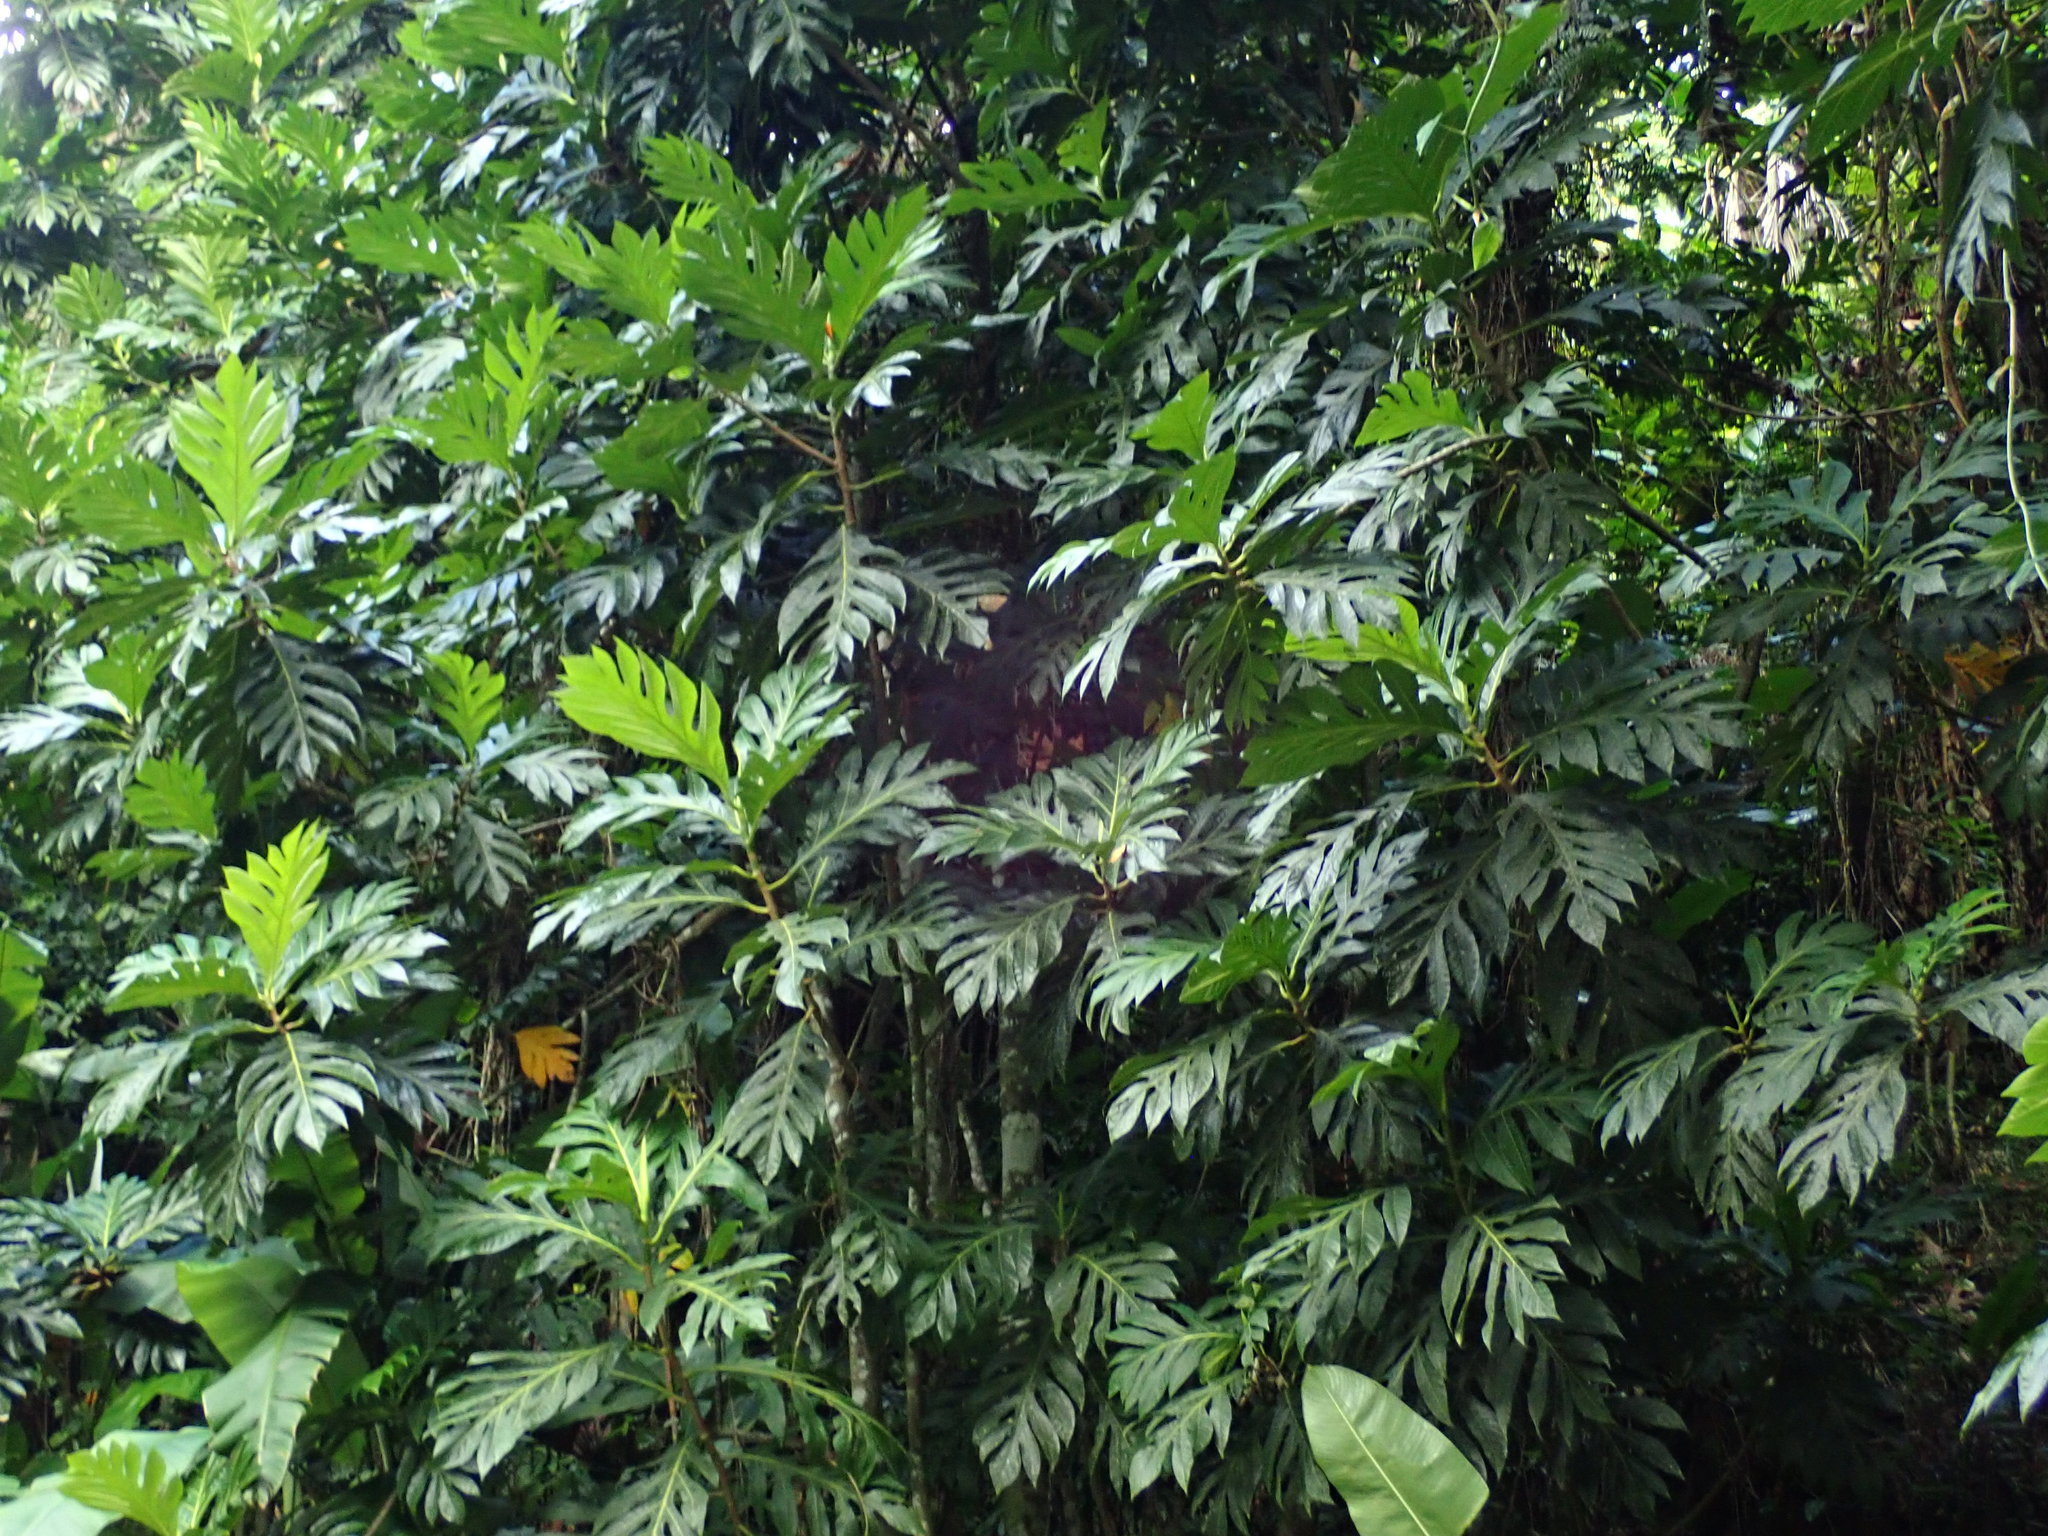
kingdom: Plantae
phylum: Tracheophyta
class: Magnoliopsida
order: Rosales
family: Moraceae
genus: Artocarpus
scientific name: Artocarpus altilis
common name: Breadfruit
